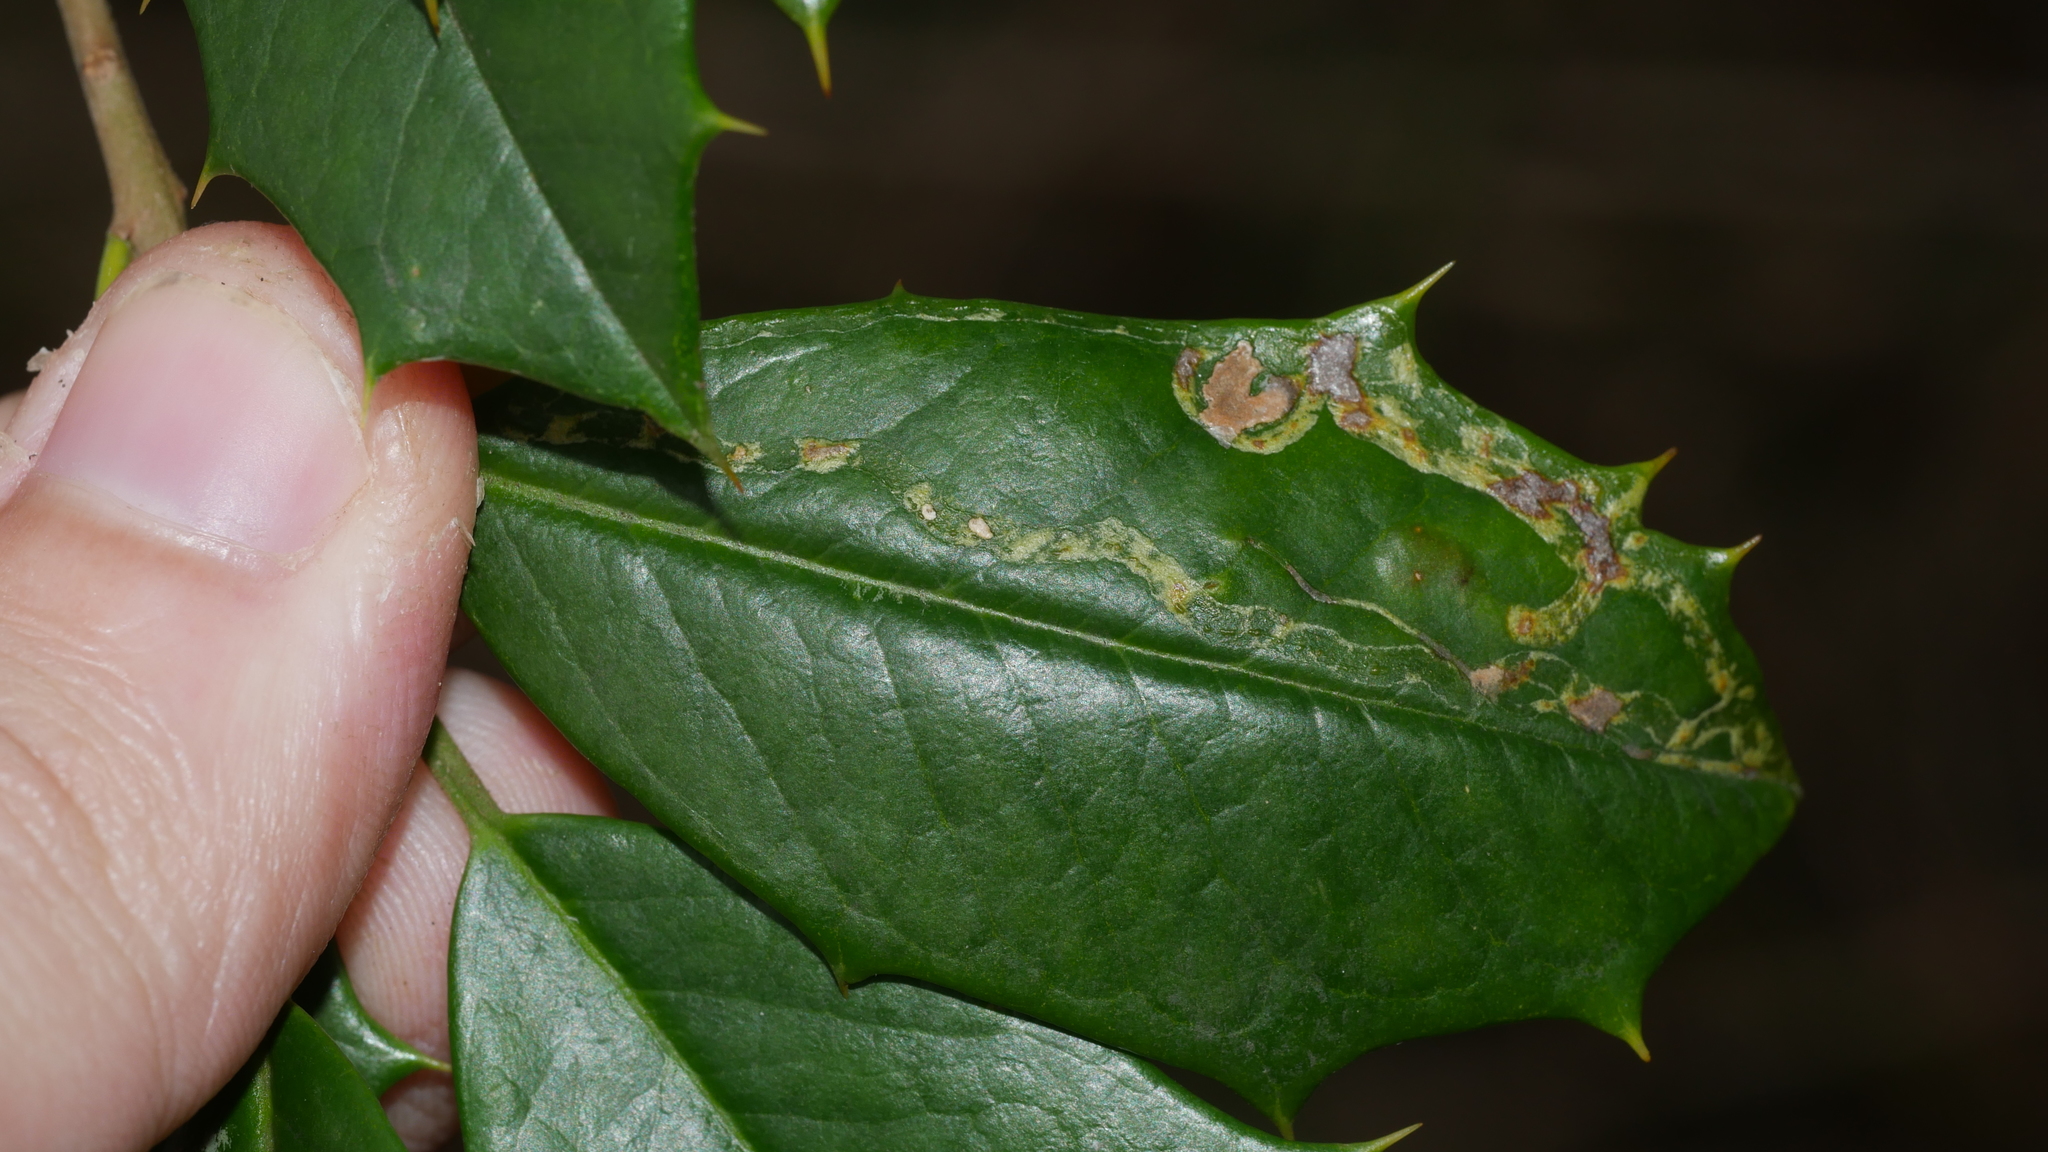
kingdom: Animalia
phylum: Arthropoda
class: Insecta
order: Diptera
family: Agromyzidae
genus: Phytomyza
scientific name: Phytomyza opacae
